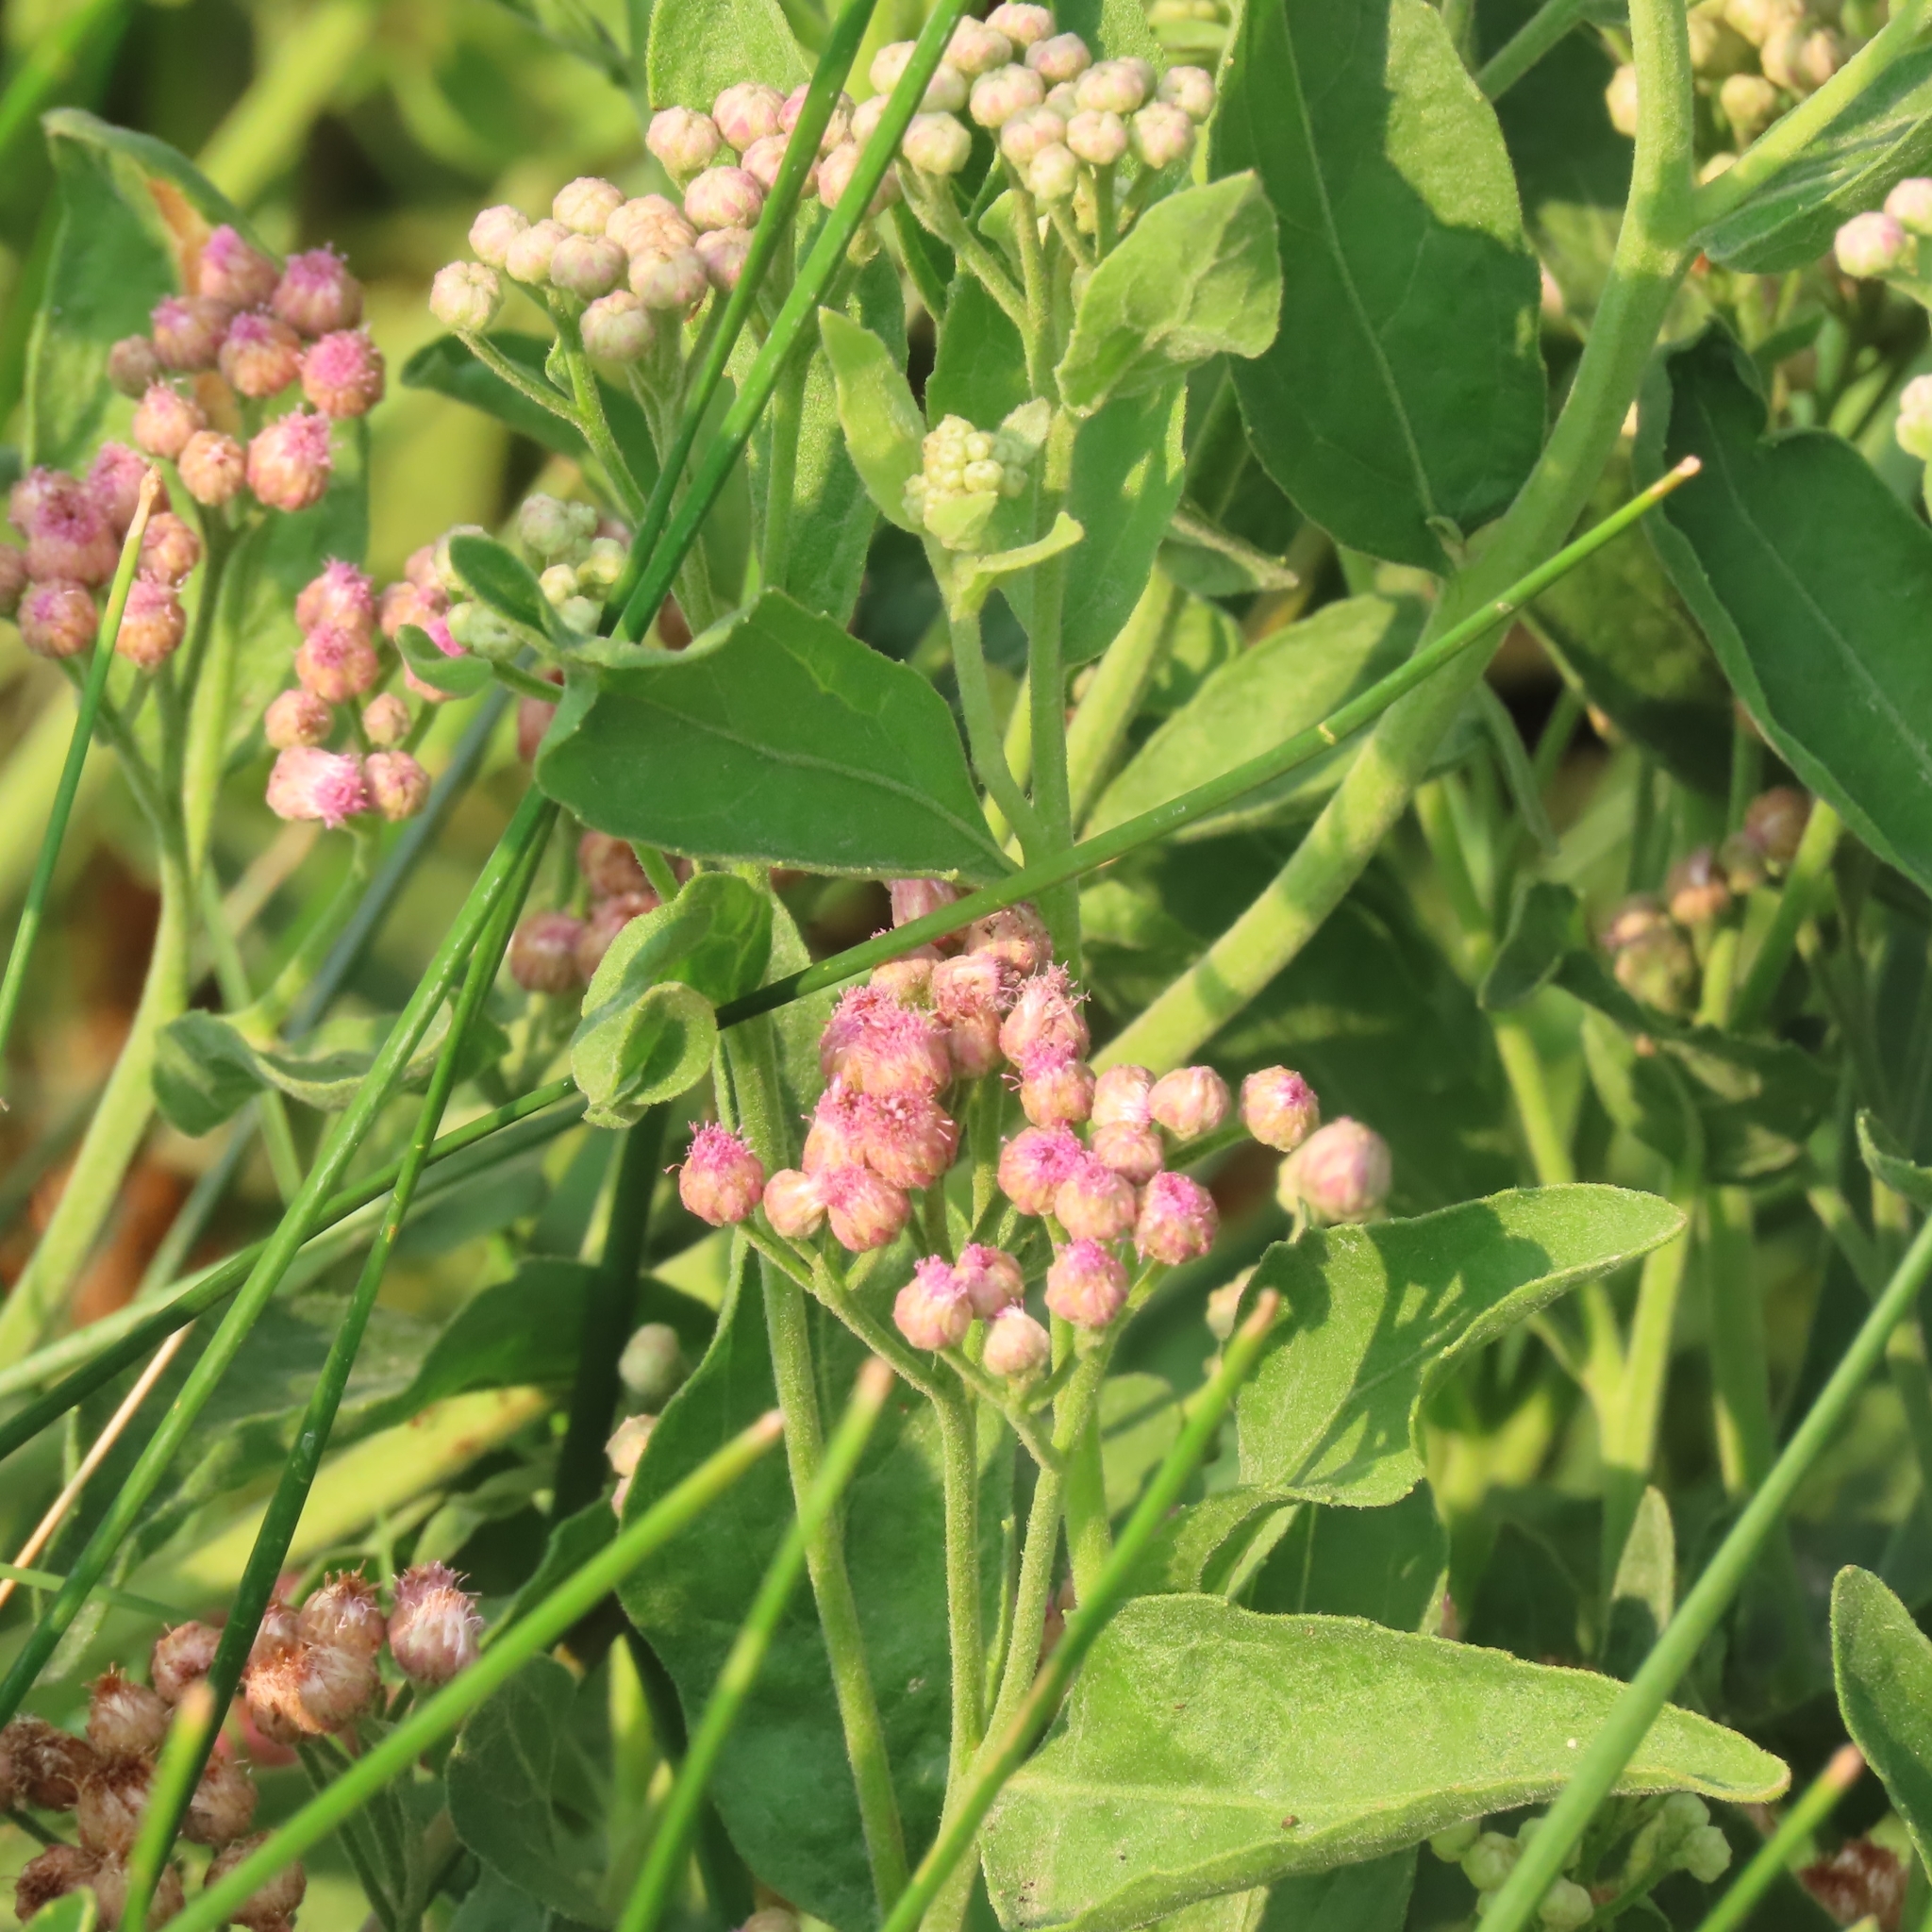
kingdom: Plantae
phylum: Tracheophyta
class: Magnoliopsida
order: Asterales
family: Asteraceae
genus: Pluchea
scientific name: Pluchea odorata
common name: Saltmarsh fleabane
